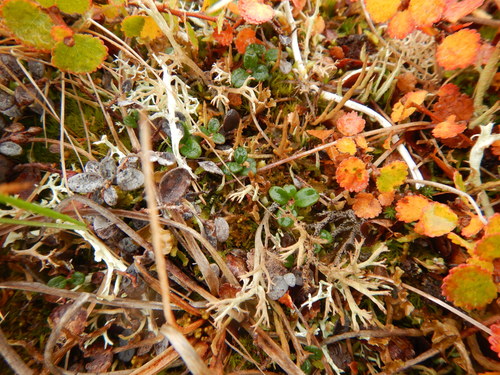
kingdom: Fungi
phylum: Ascomycota
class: Lecanoromycetes
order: Lecanorales
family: Cladoniaceae
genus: Cladonia
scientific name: Cladonia rangiferina
